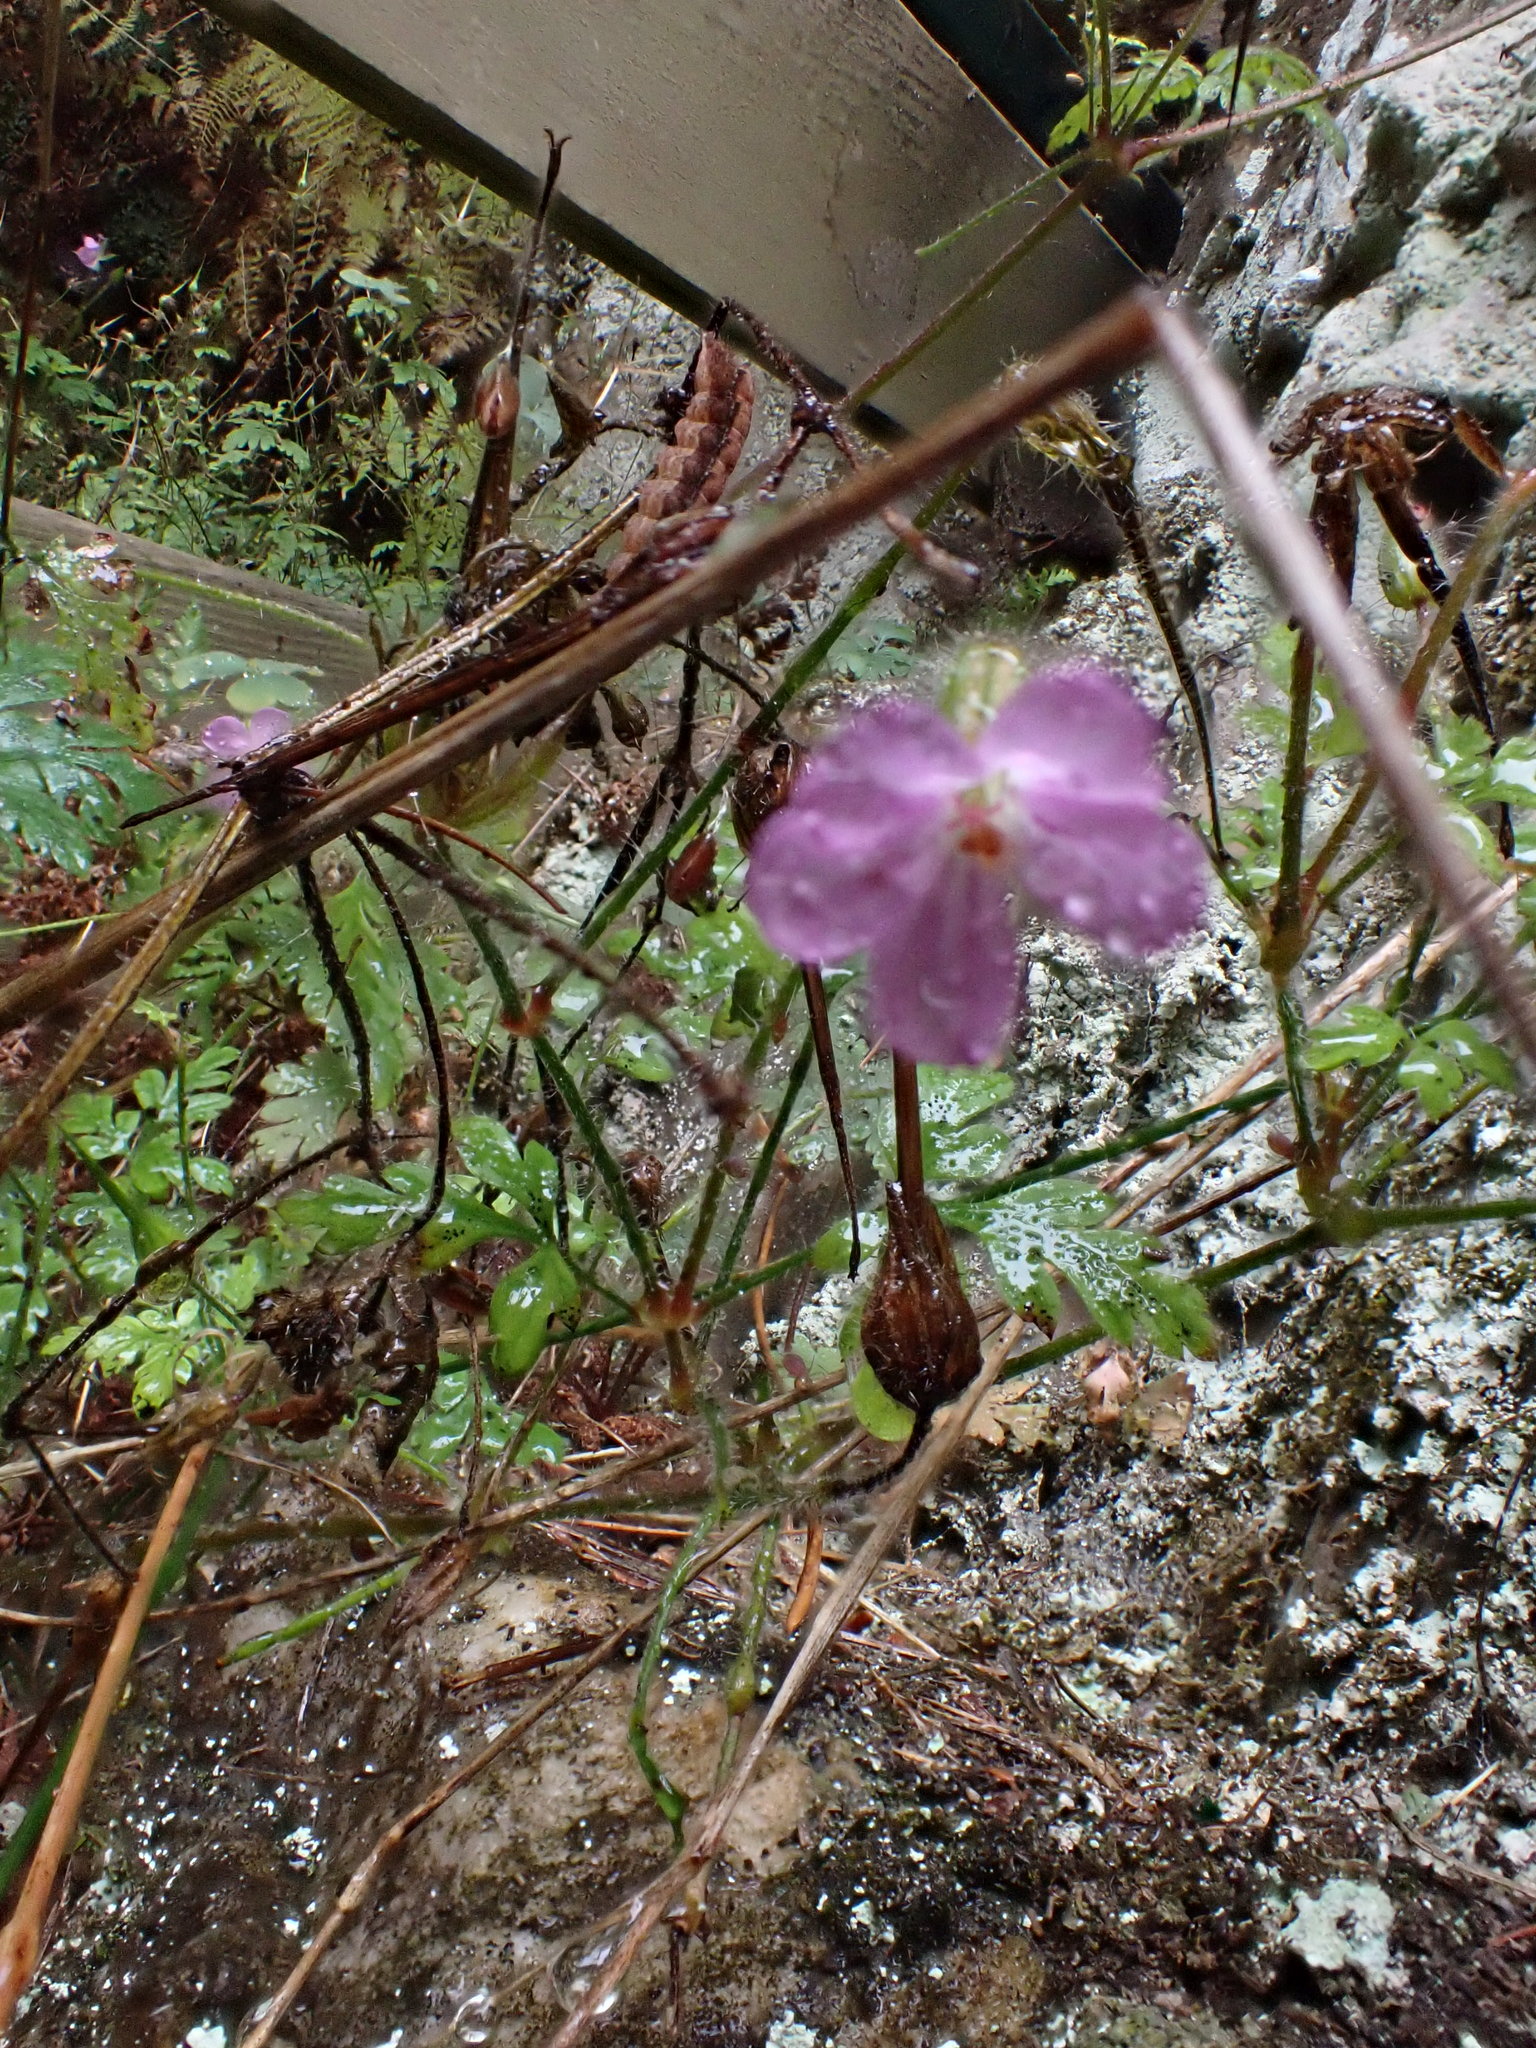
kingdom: Plantae
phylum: Tracheophyta
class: Magnoliopsida
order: Geraniales
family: Geraniaceae
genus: Geranium
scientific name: Geranium robertianum
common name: Herb-robert
